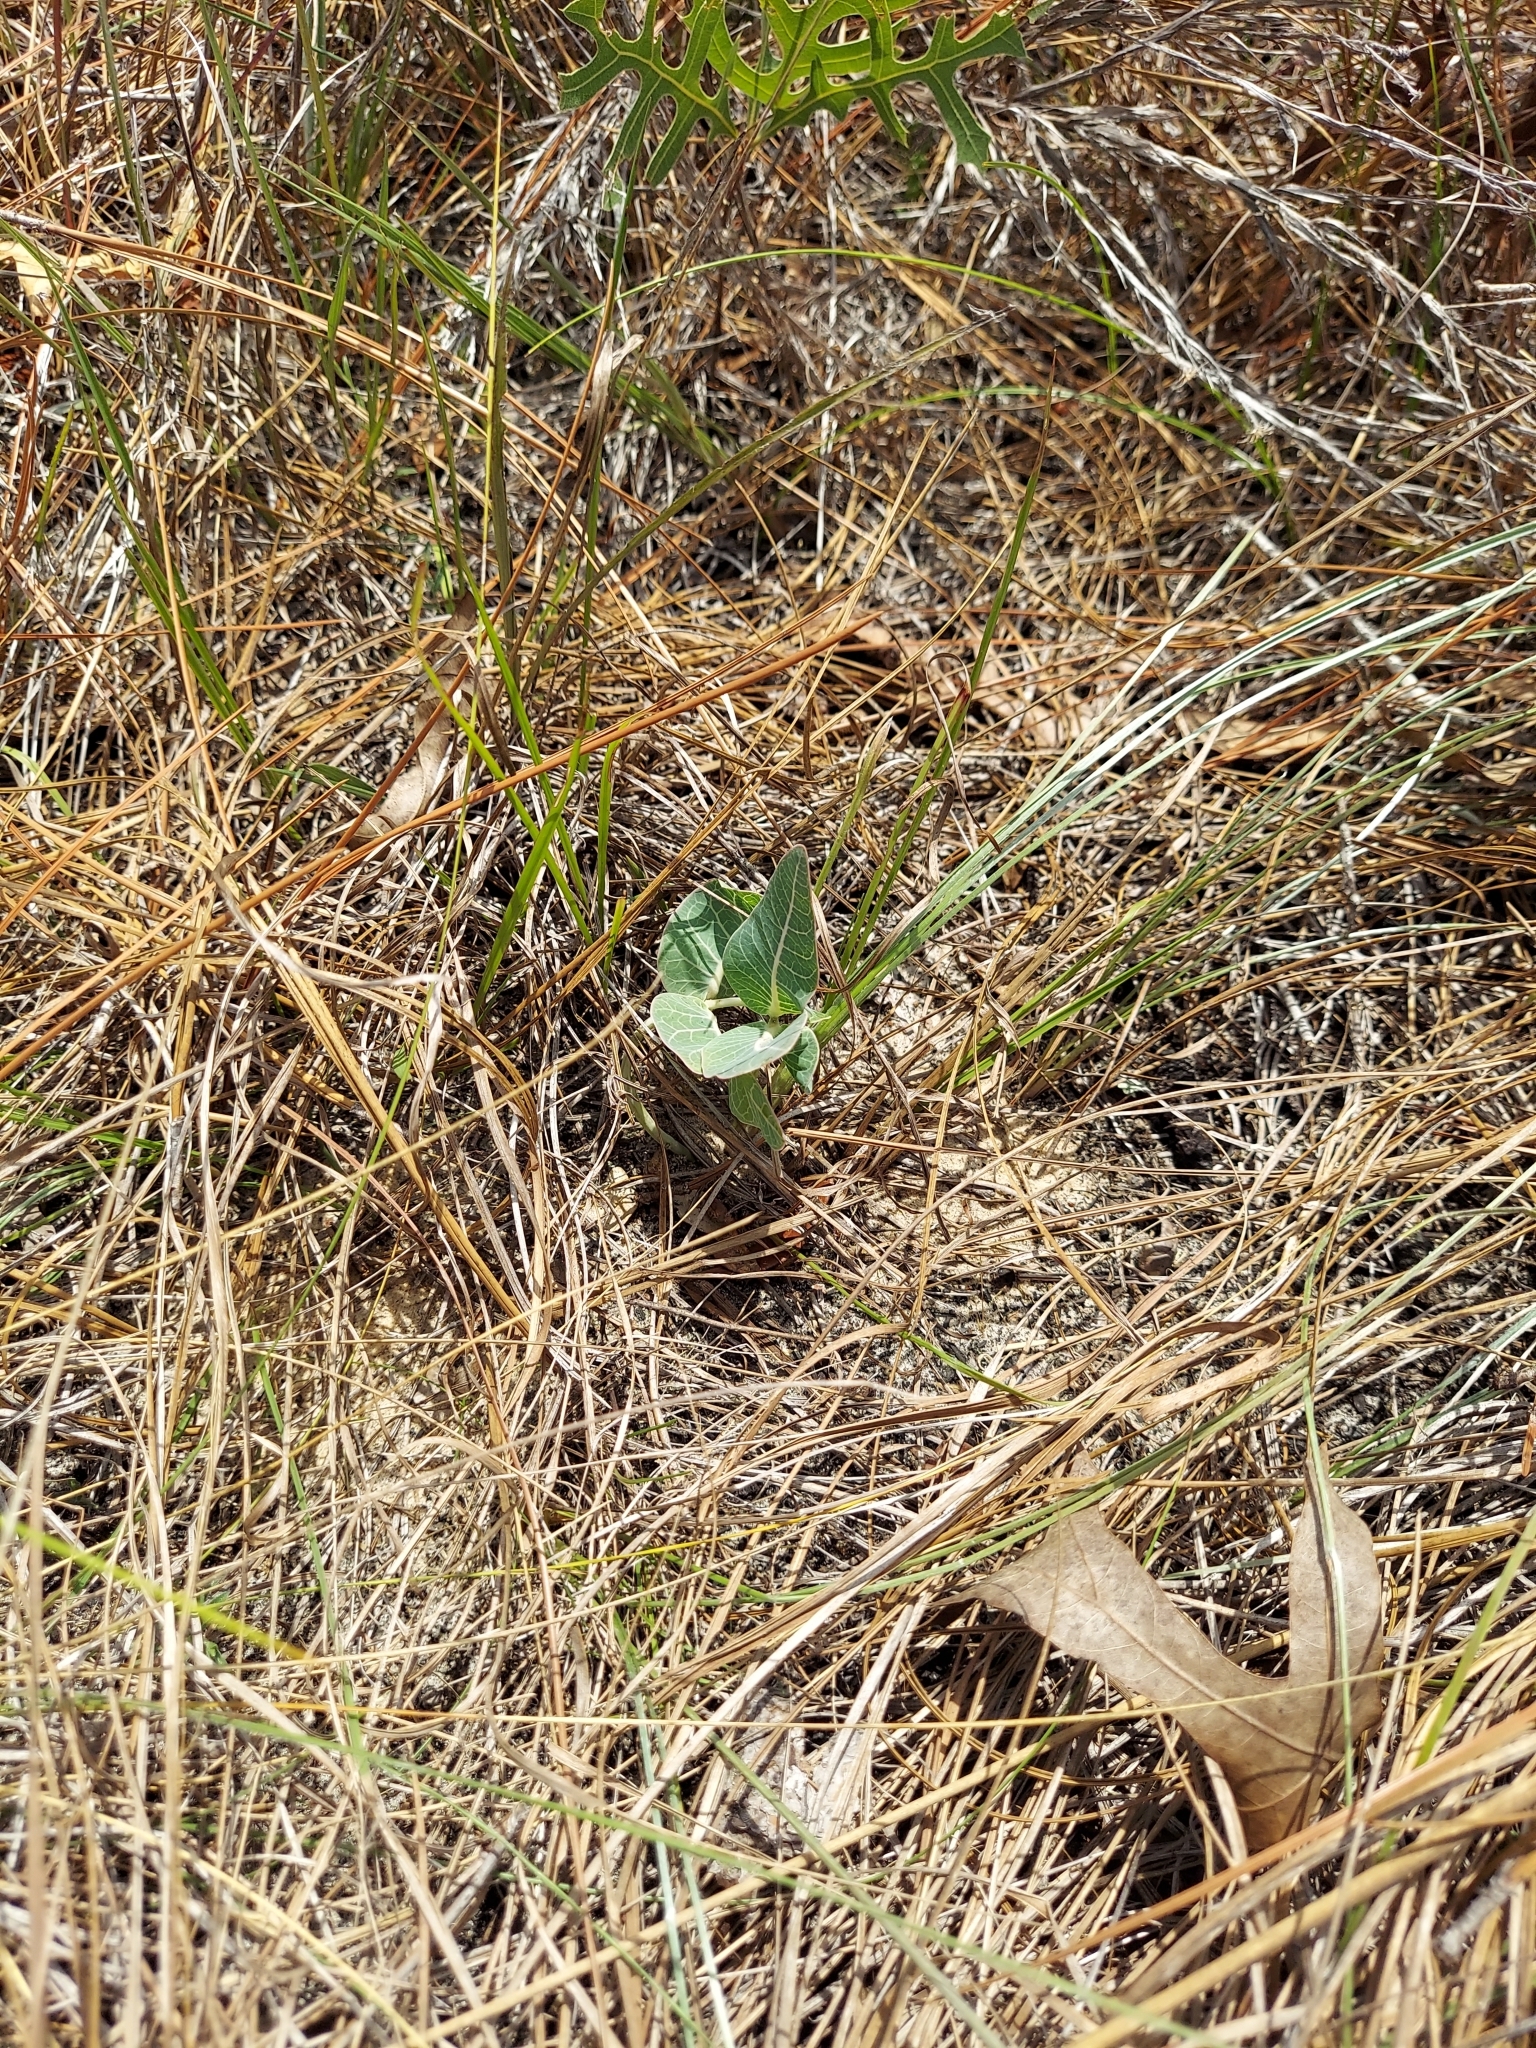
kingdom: Plantae
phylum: Tracheophyta
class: Magnoliopsida
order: Gentianales
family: Apocynaceae
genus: Asclepias
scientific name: Asclepias humistrata
